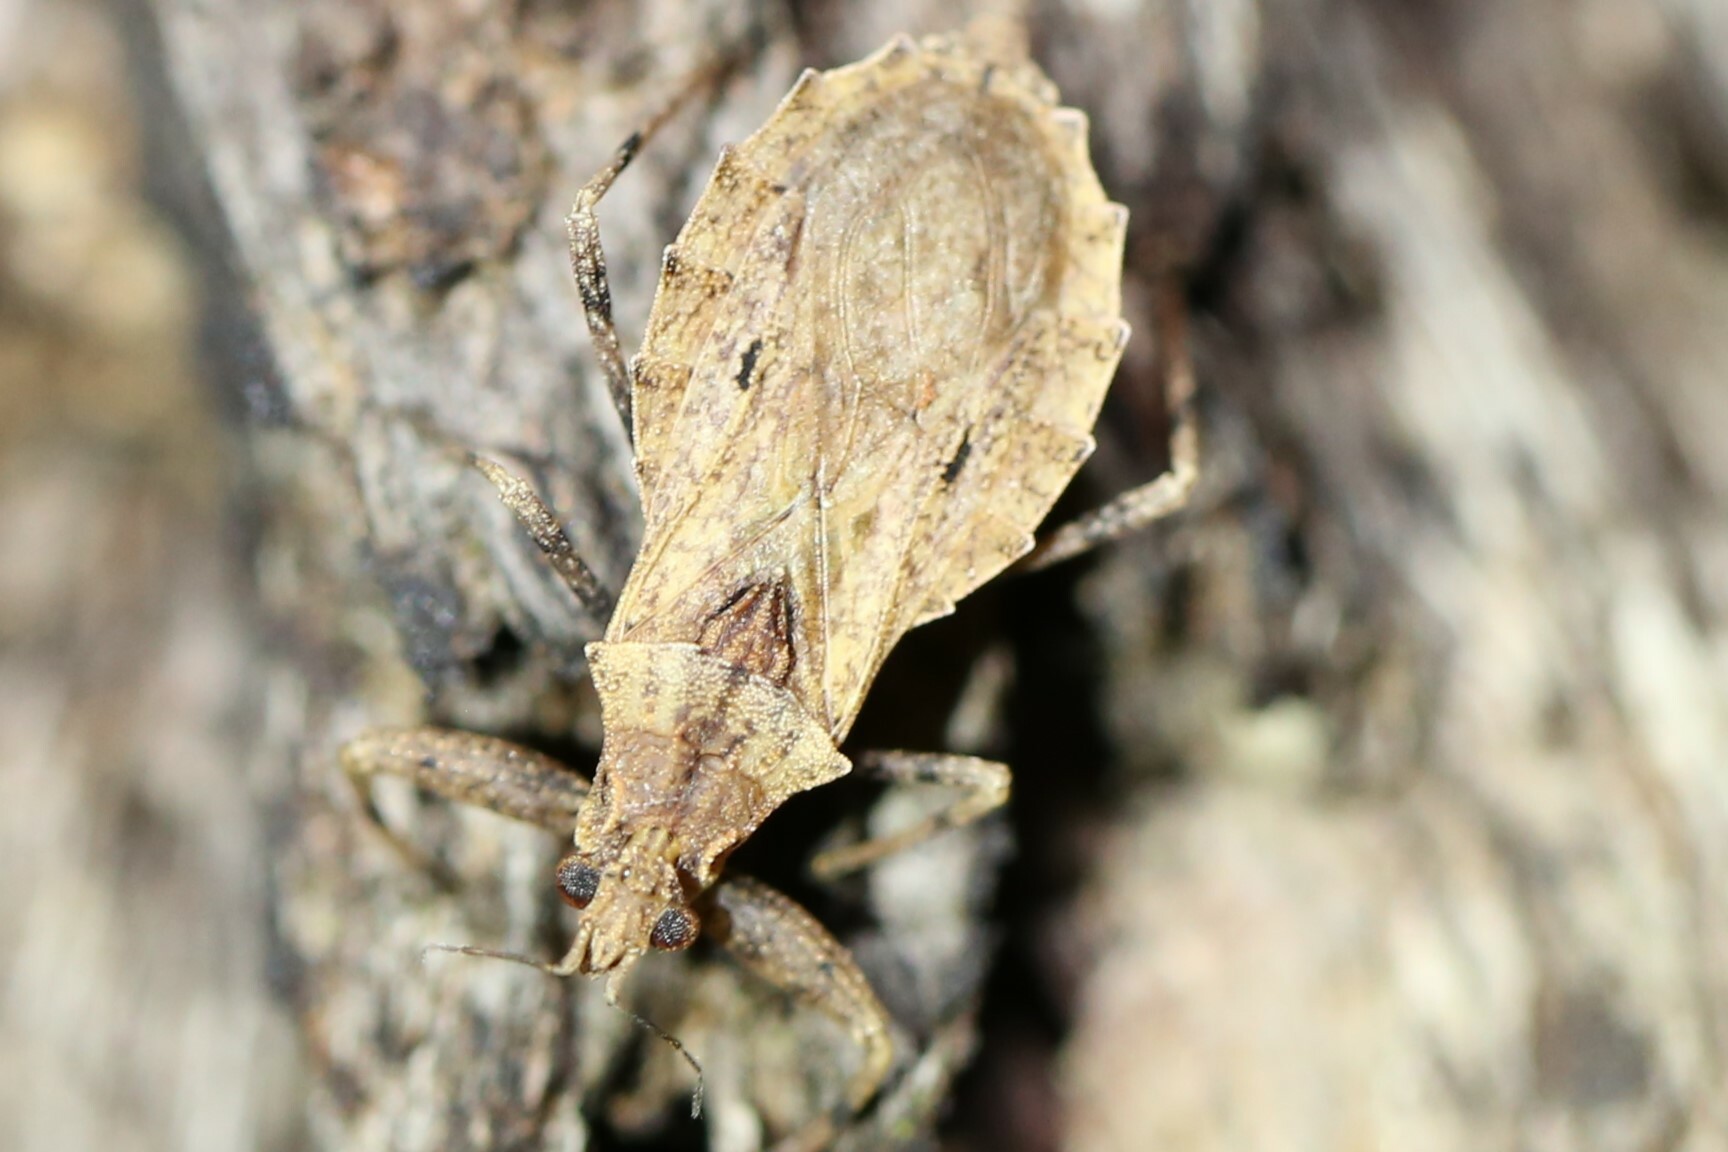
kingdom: Animalia
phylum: Arthropoda
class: Insecta
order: Hemiptera
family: Reduviidae
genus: Dulitocoris
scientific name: Dulitocoris usingeri
